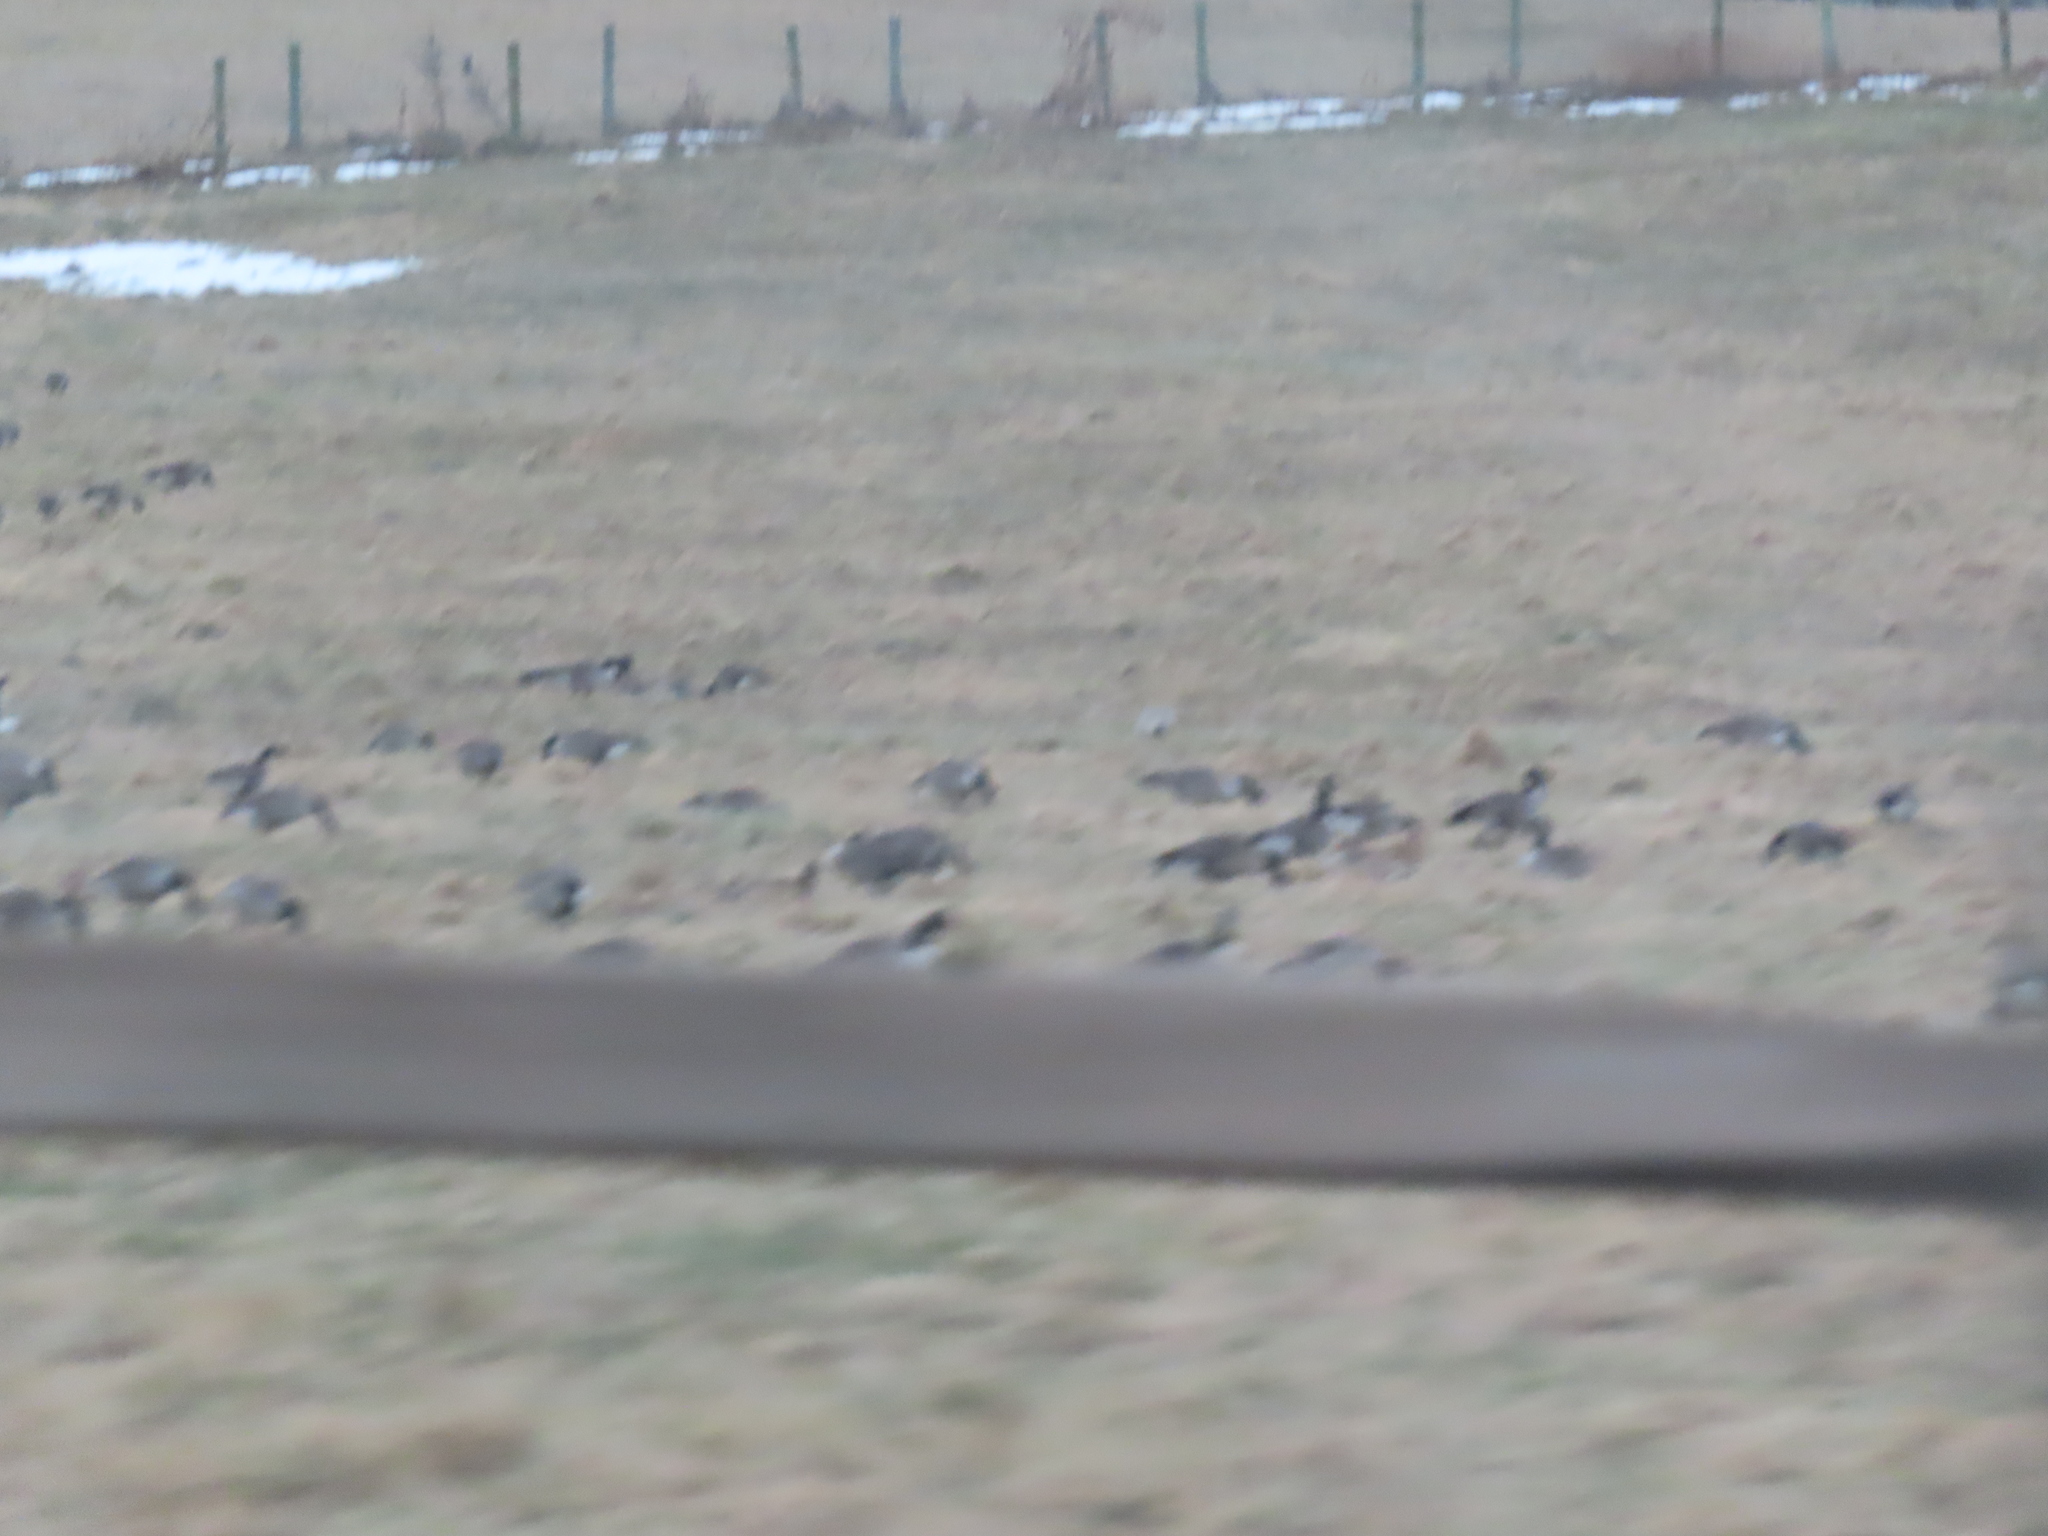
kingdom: Animalia
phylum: Chordata
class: Aves
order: Anseriformes
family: Anatidae
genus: Branta
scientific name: Branta canadensis
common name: Canada goose
